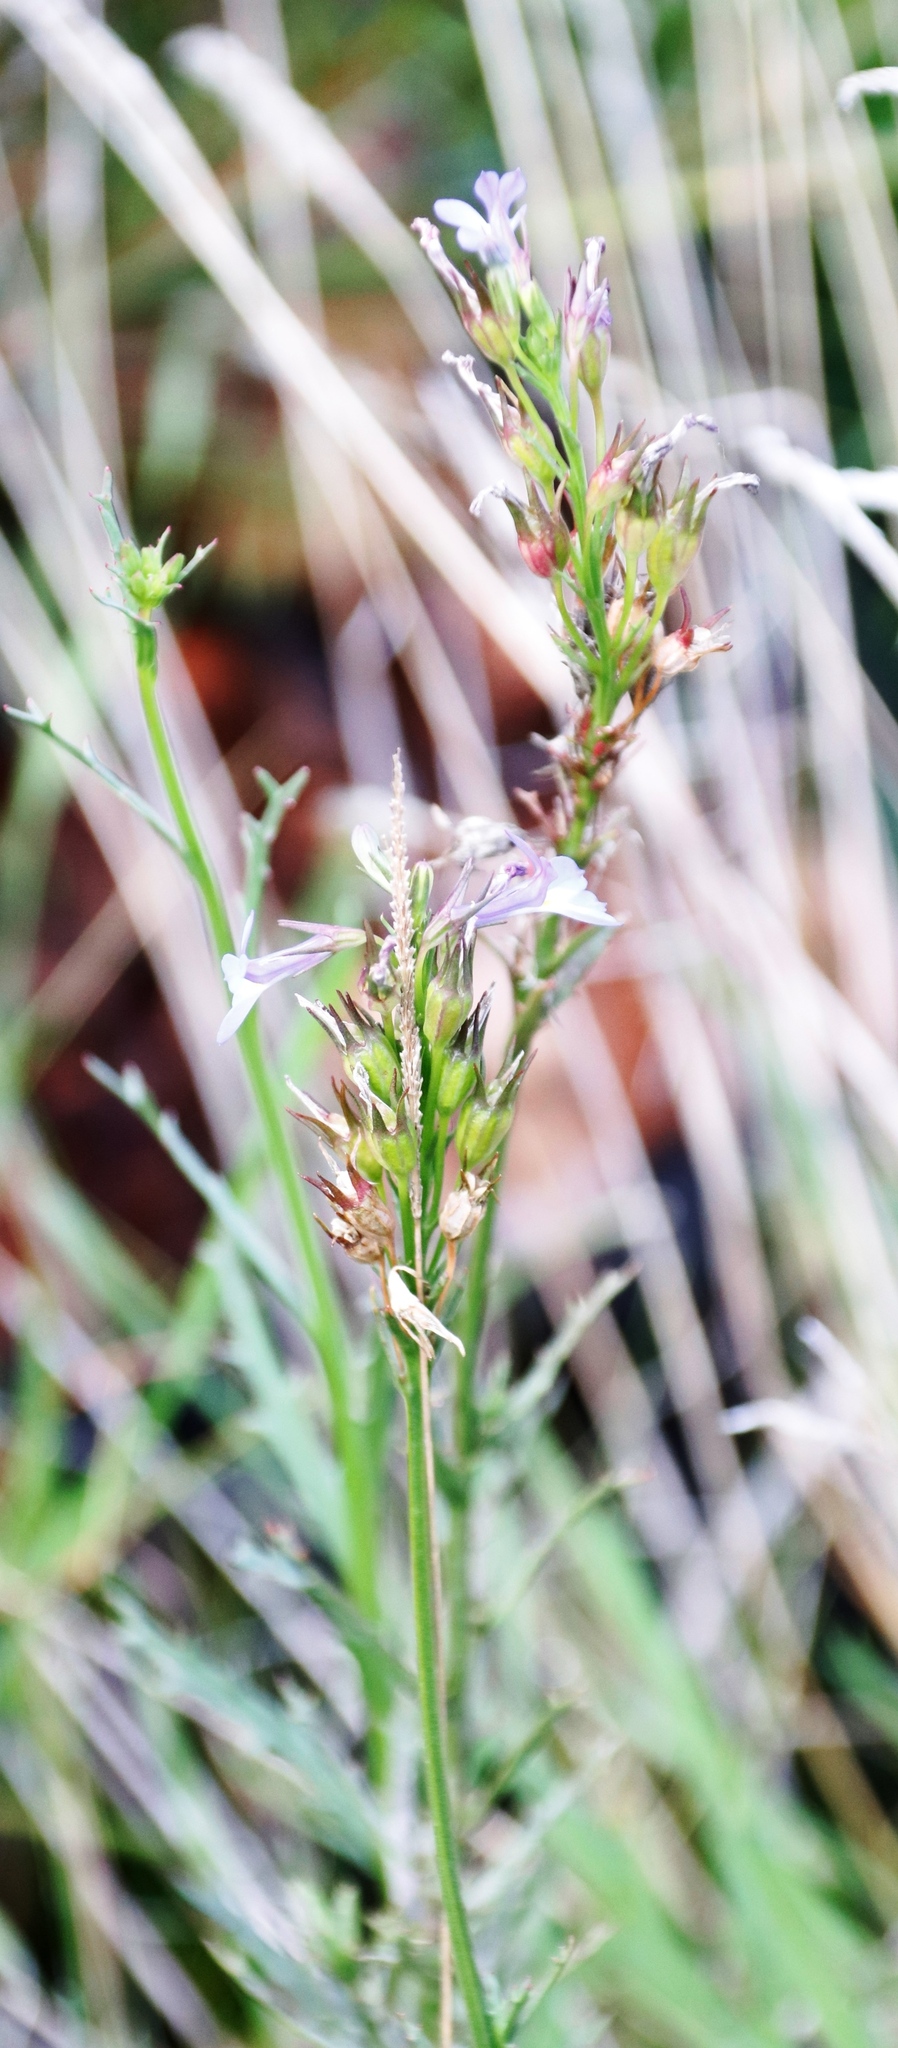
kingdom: Plantae
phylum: Tracheophyta
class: Magnoliopsida
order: Asterales
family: Campanulaceae
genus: Lobelia
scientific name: Lobelia comosa
